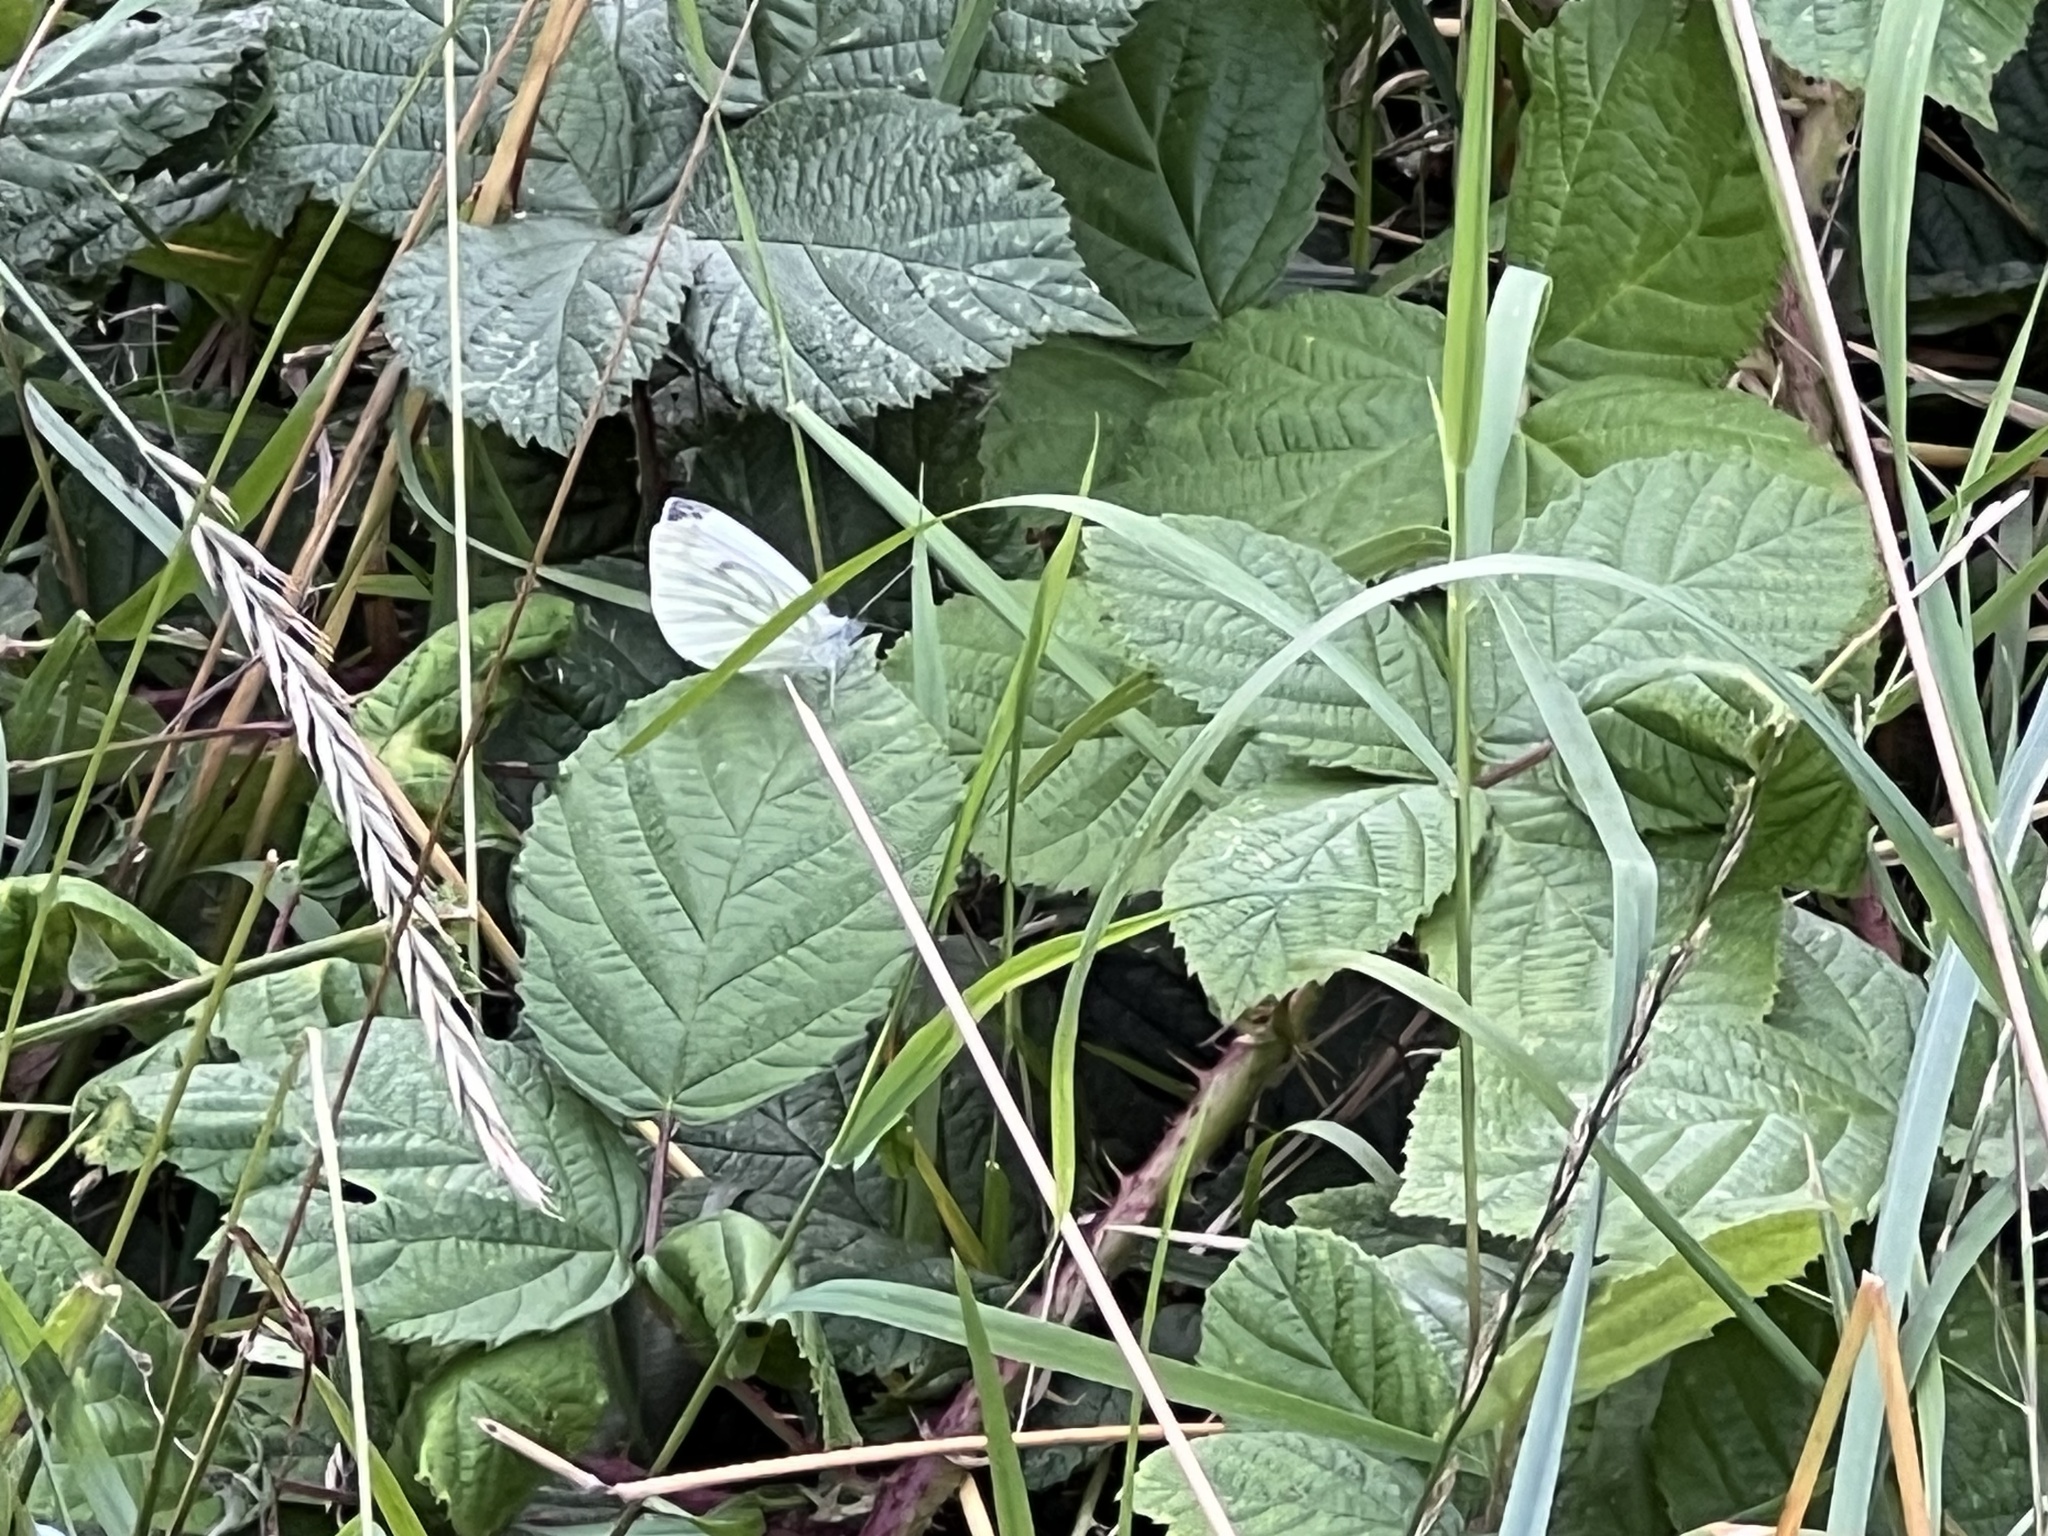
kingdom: Animalia
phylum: Arthropoda
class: Insecta
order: Lepidoptera
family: Pieridae
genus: Pieris
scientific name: Pieris napi
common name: Green-veined white
